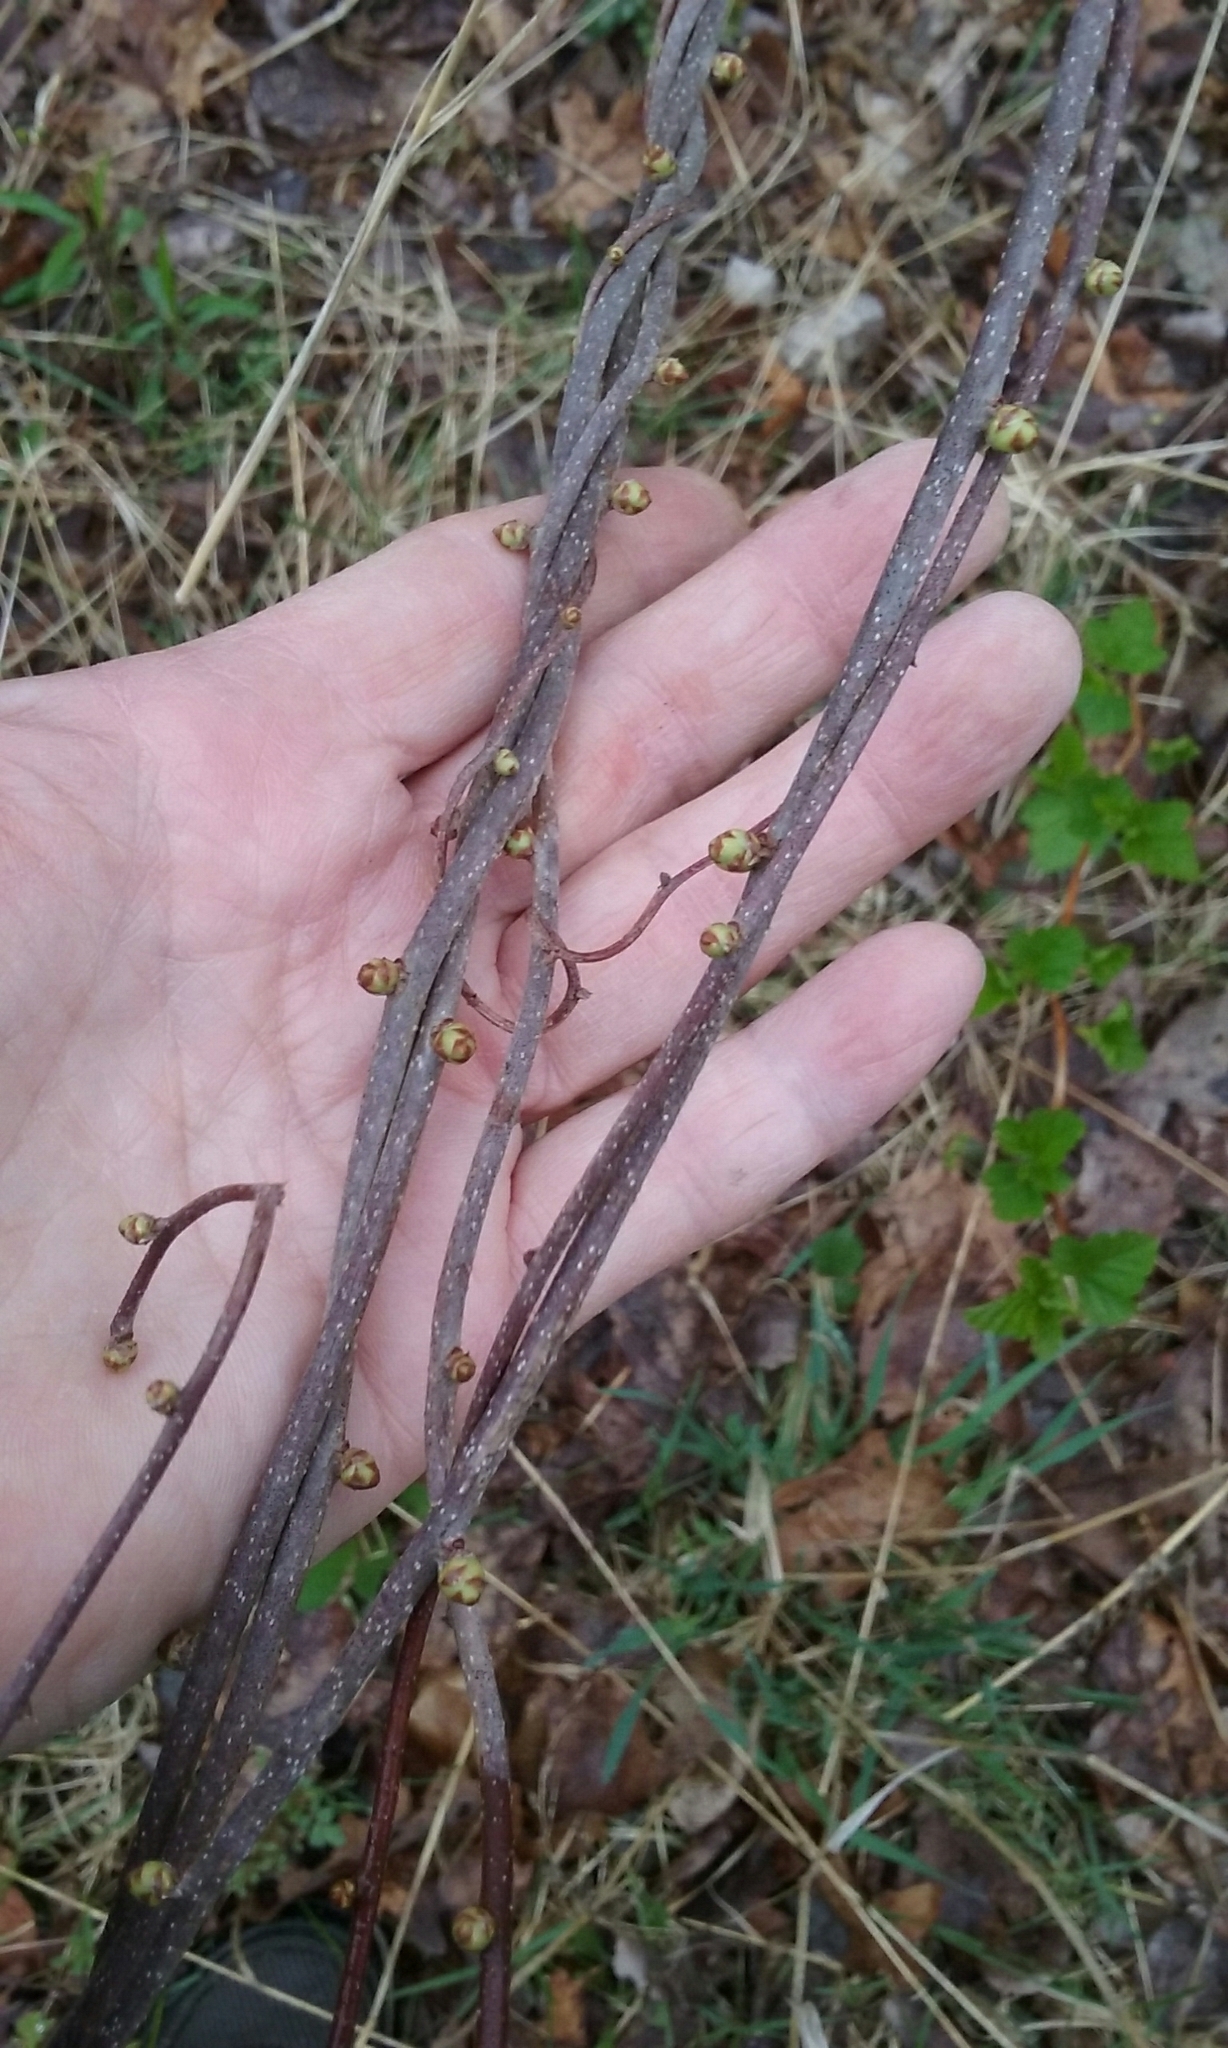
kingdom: Plantae
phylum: Tracheophyta
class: Magnoliopsida
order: Celastrales
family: Celastraceae
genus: Celastrus
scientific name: Celastrus orbiculatus
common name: Oriental bittersweet
